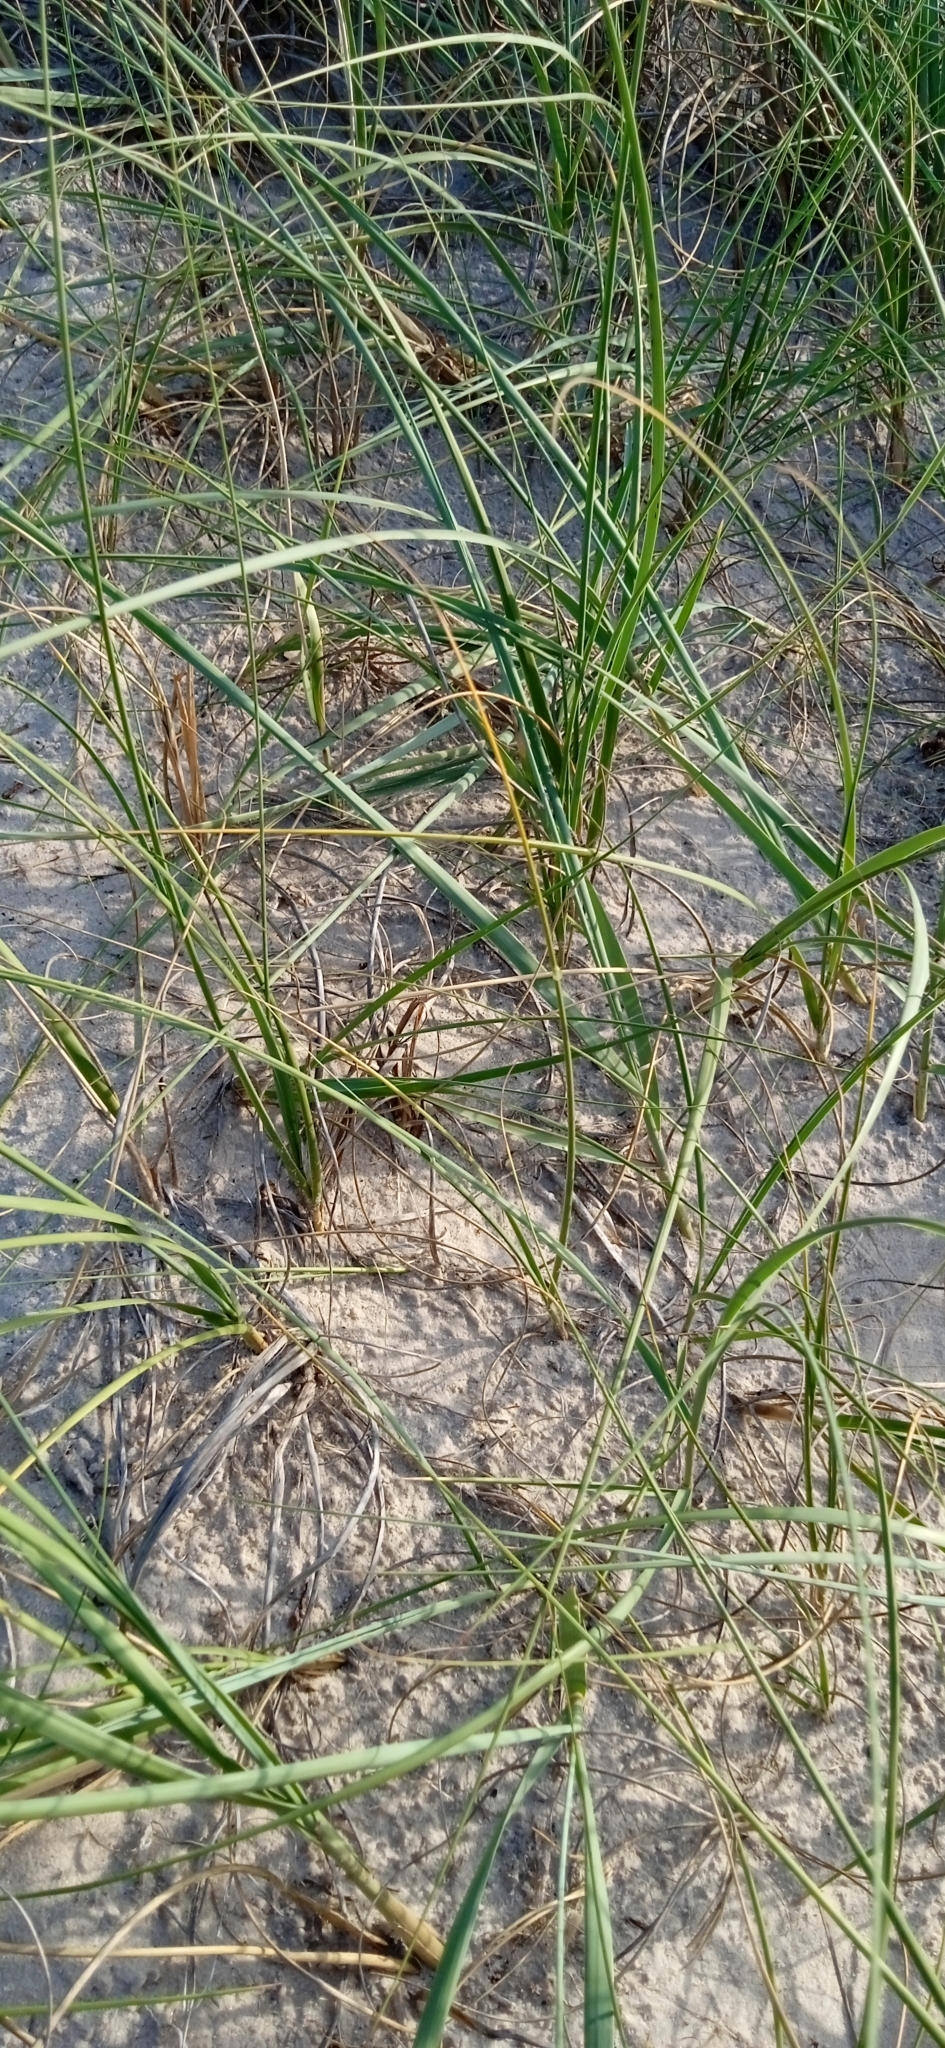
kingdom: Plantae
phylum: Tracheophyta
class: Liliopsida
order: Poales
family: Poaceae
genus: Panicum
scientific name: Panicum racemosum
